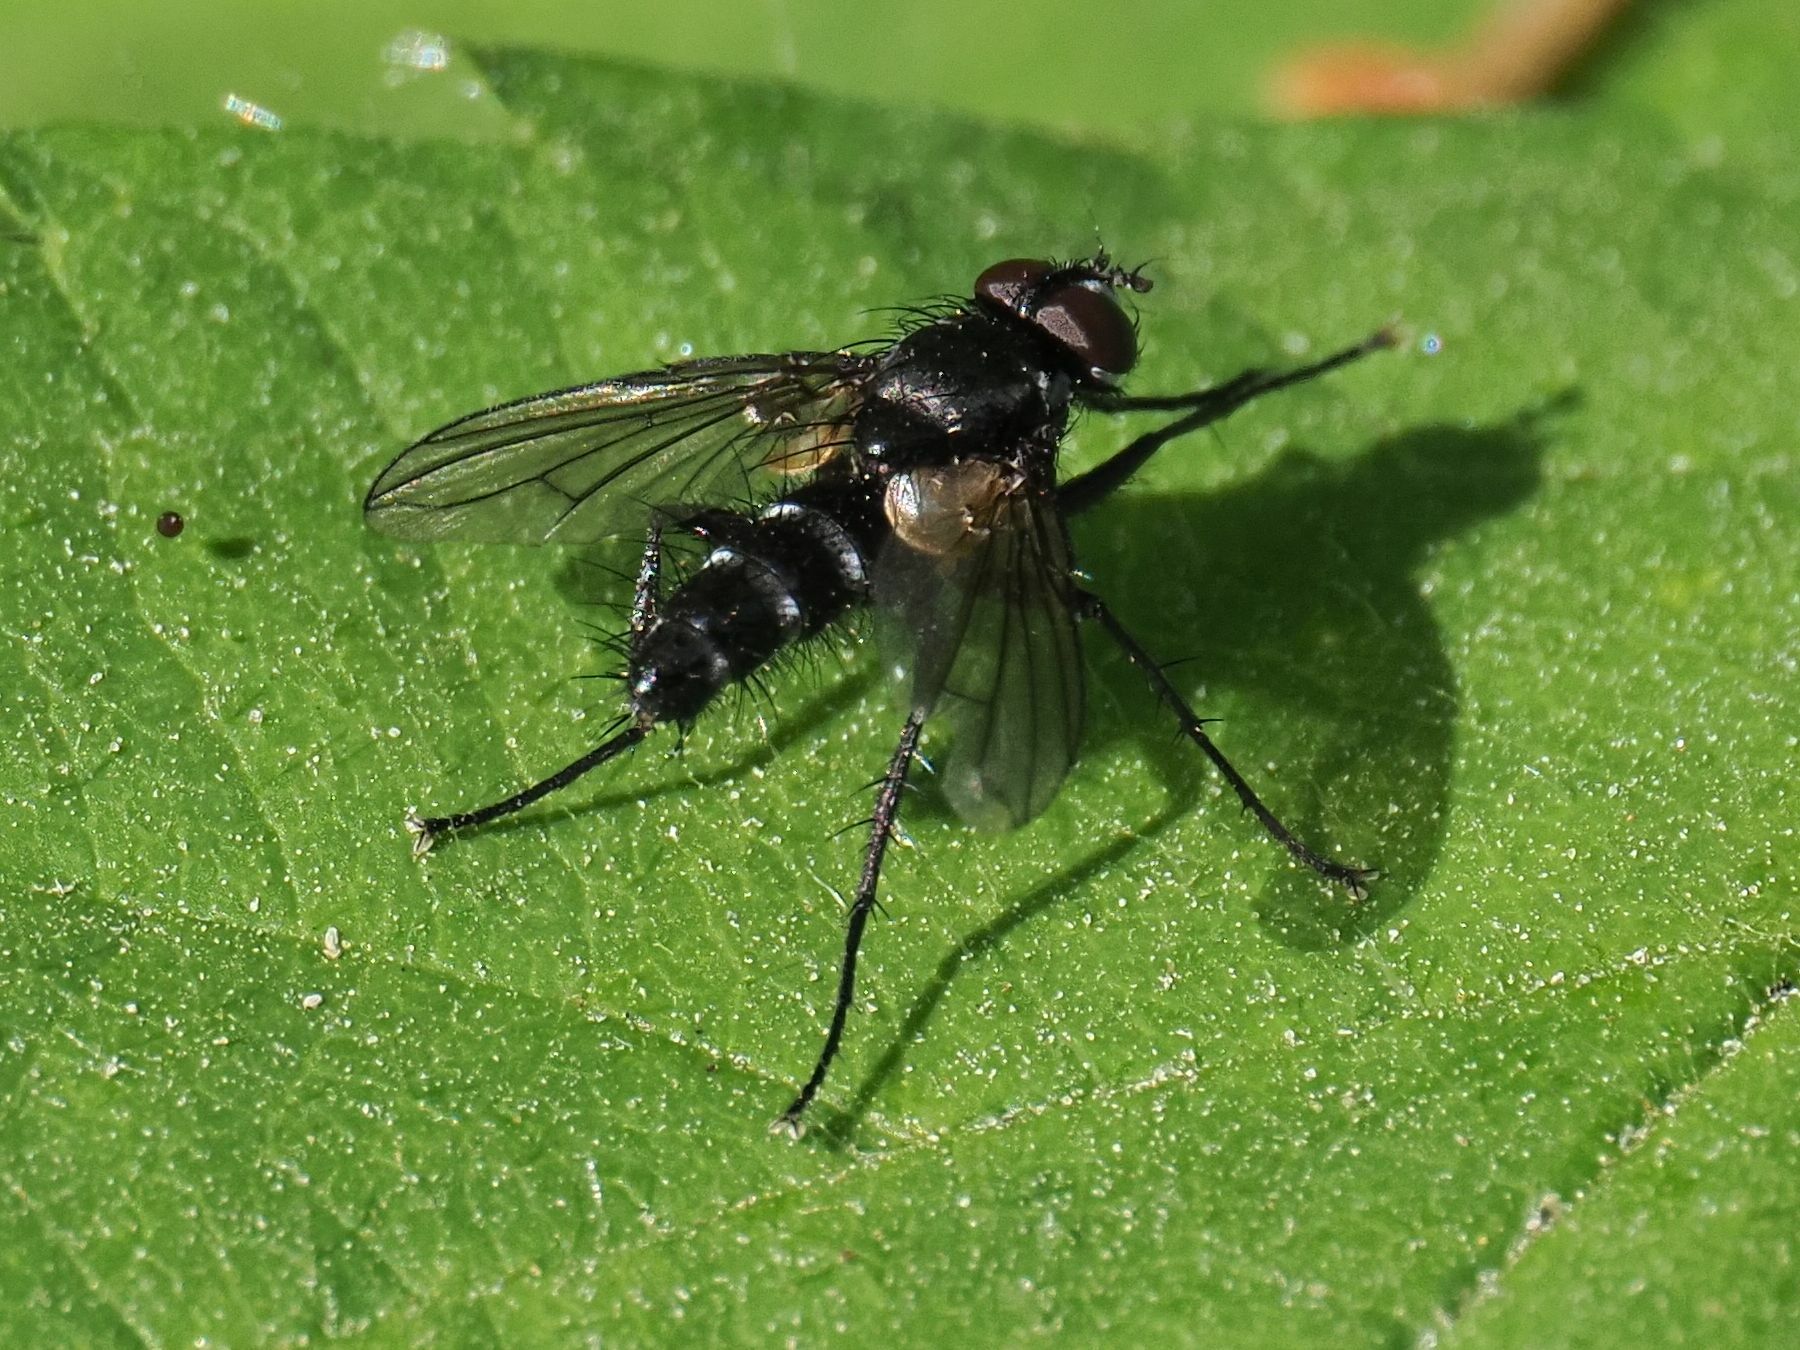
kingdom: Animalia
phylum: Arthropoda
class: Insecta
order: Diptera
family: Tachinidae
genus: Phyllomya
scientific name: Phyllomya volvulus
